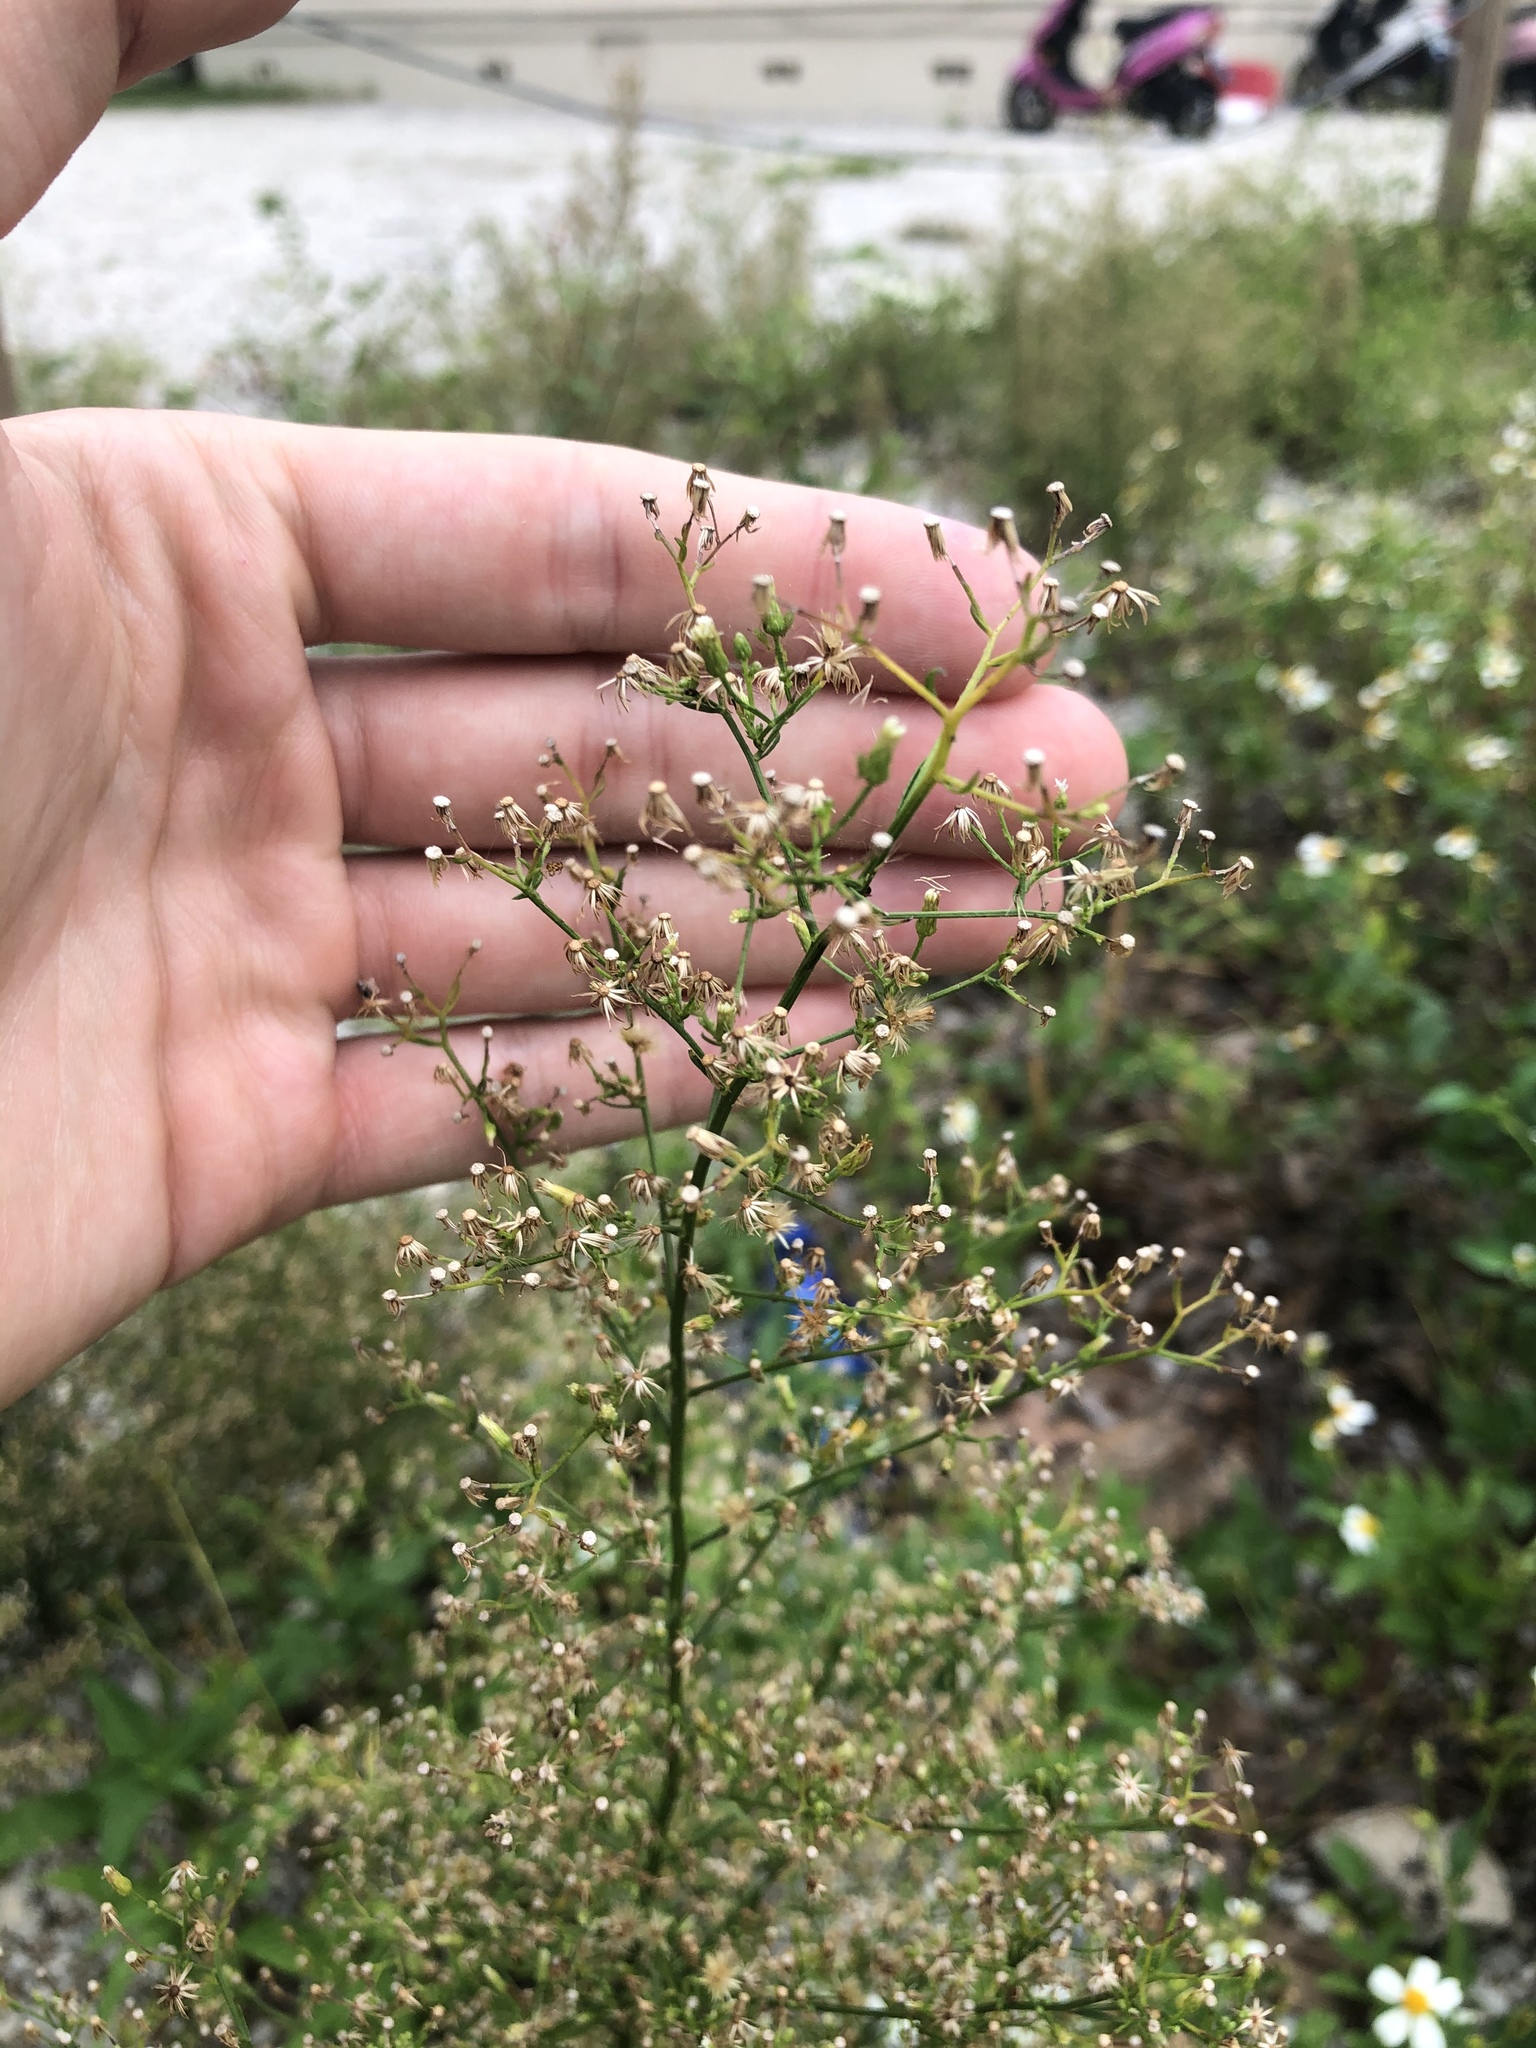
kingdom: Plantae
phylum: Tracheophyta
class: Magnoliopsida
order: Asterales
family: Asteraceae
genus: Erigeron
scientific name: Erigeron canadensis
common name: Canadian fleabane
